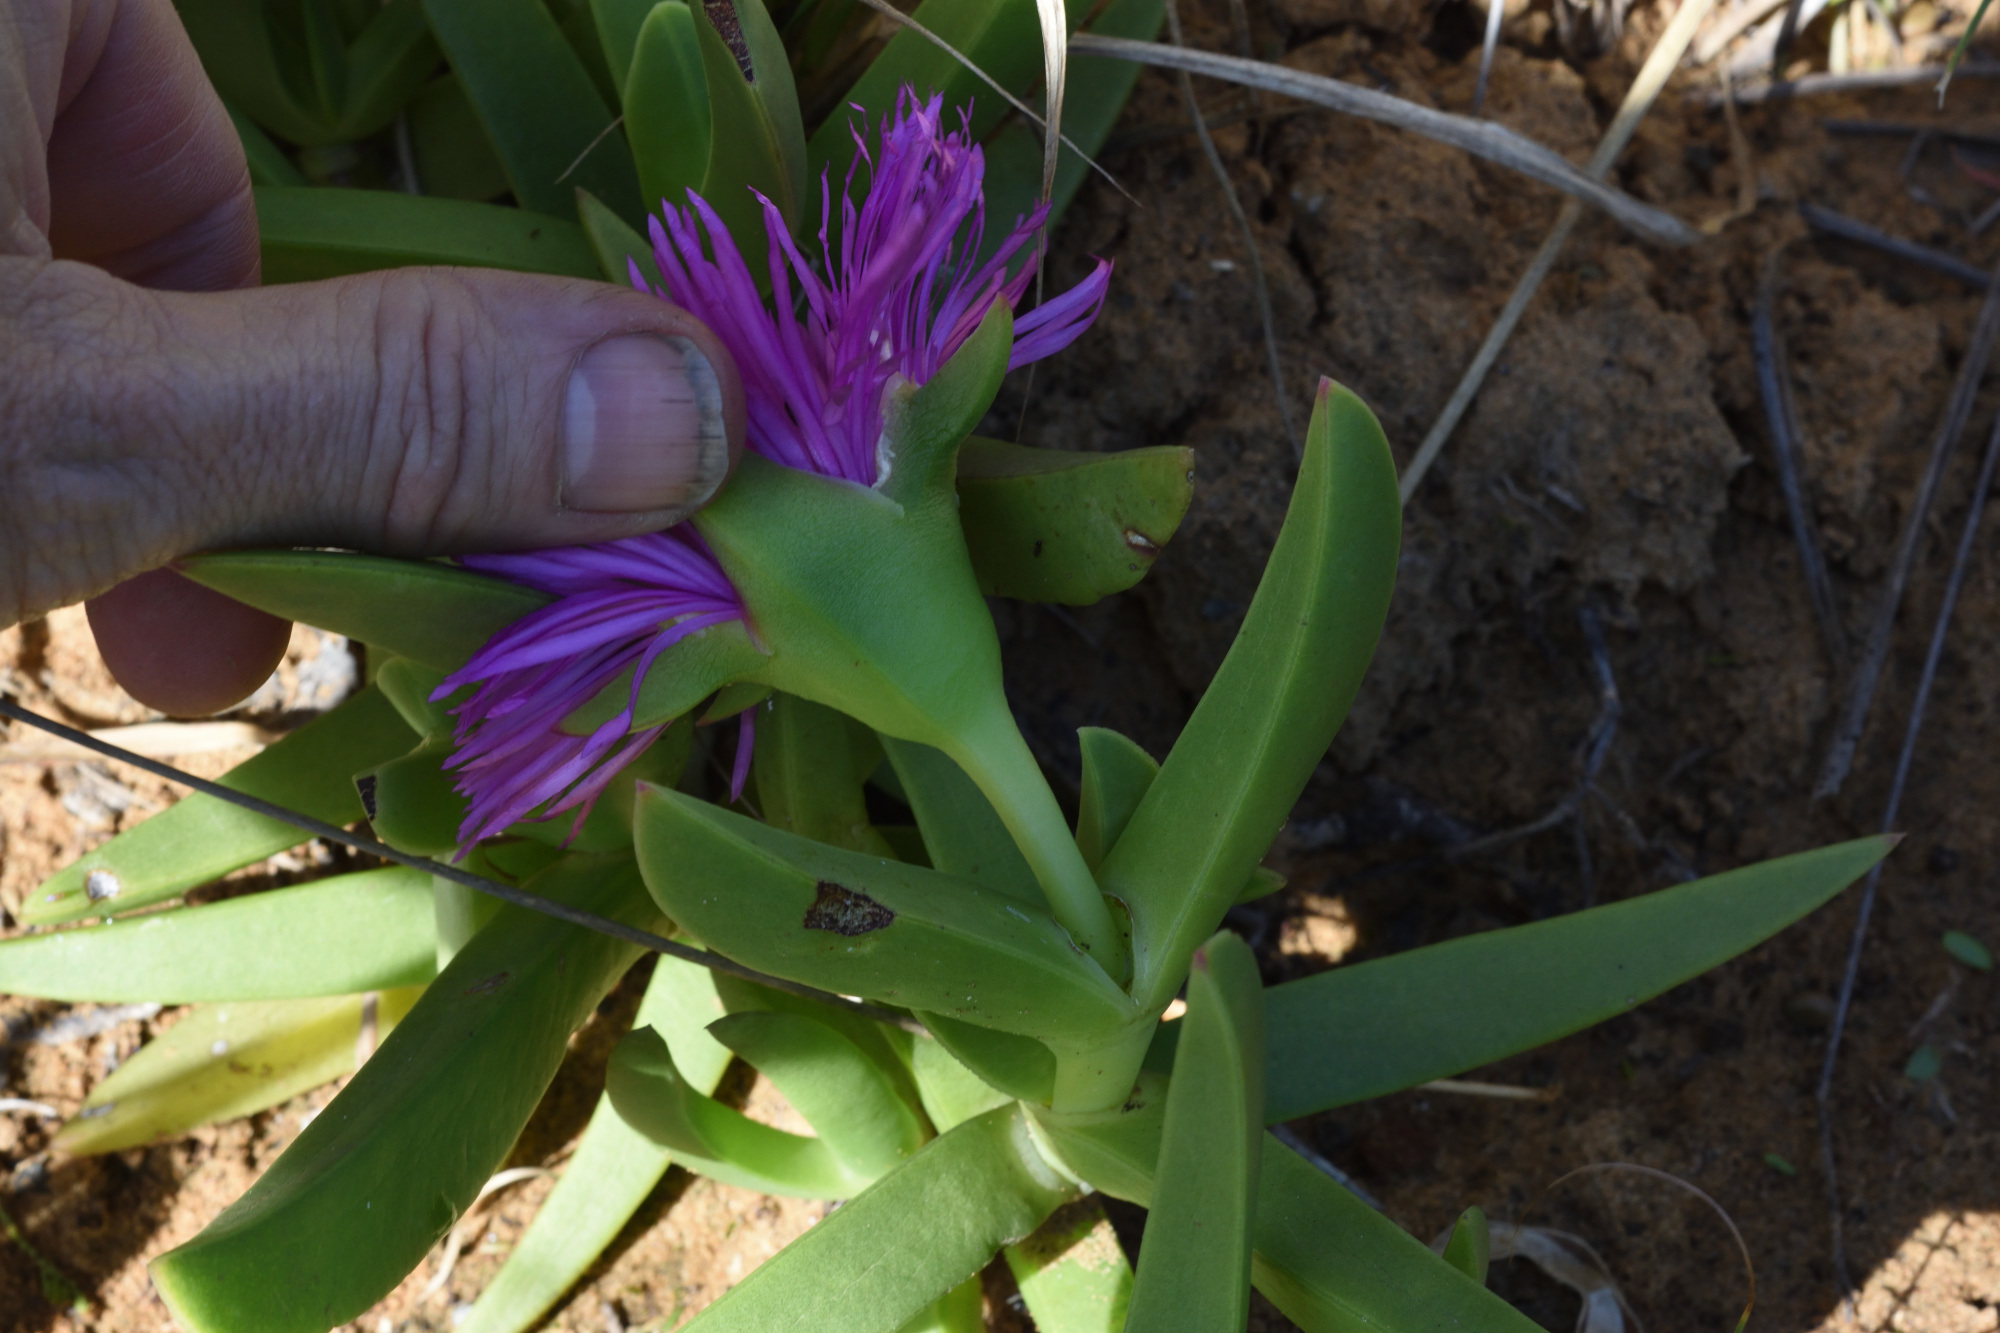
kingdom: Plantae
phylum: Tracheophyta
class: Magnoliopsida
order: Caryophyllales
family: Aizoaceae
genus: Carpobrotus
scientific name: Carpobrotus deliciosus
